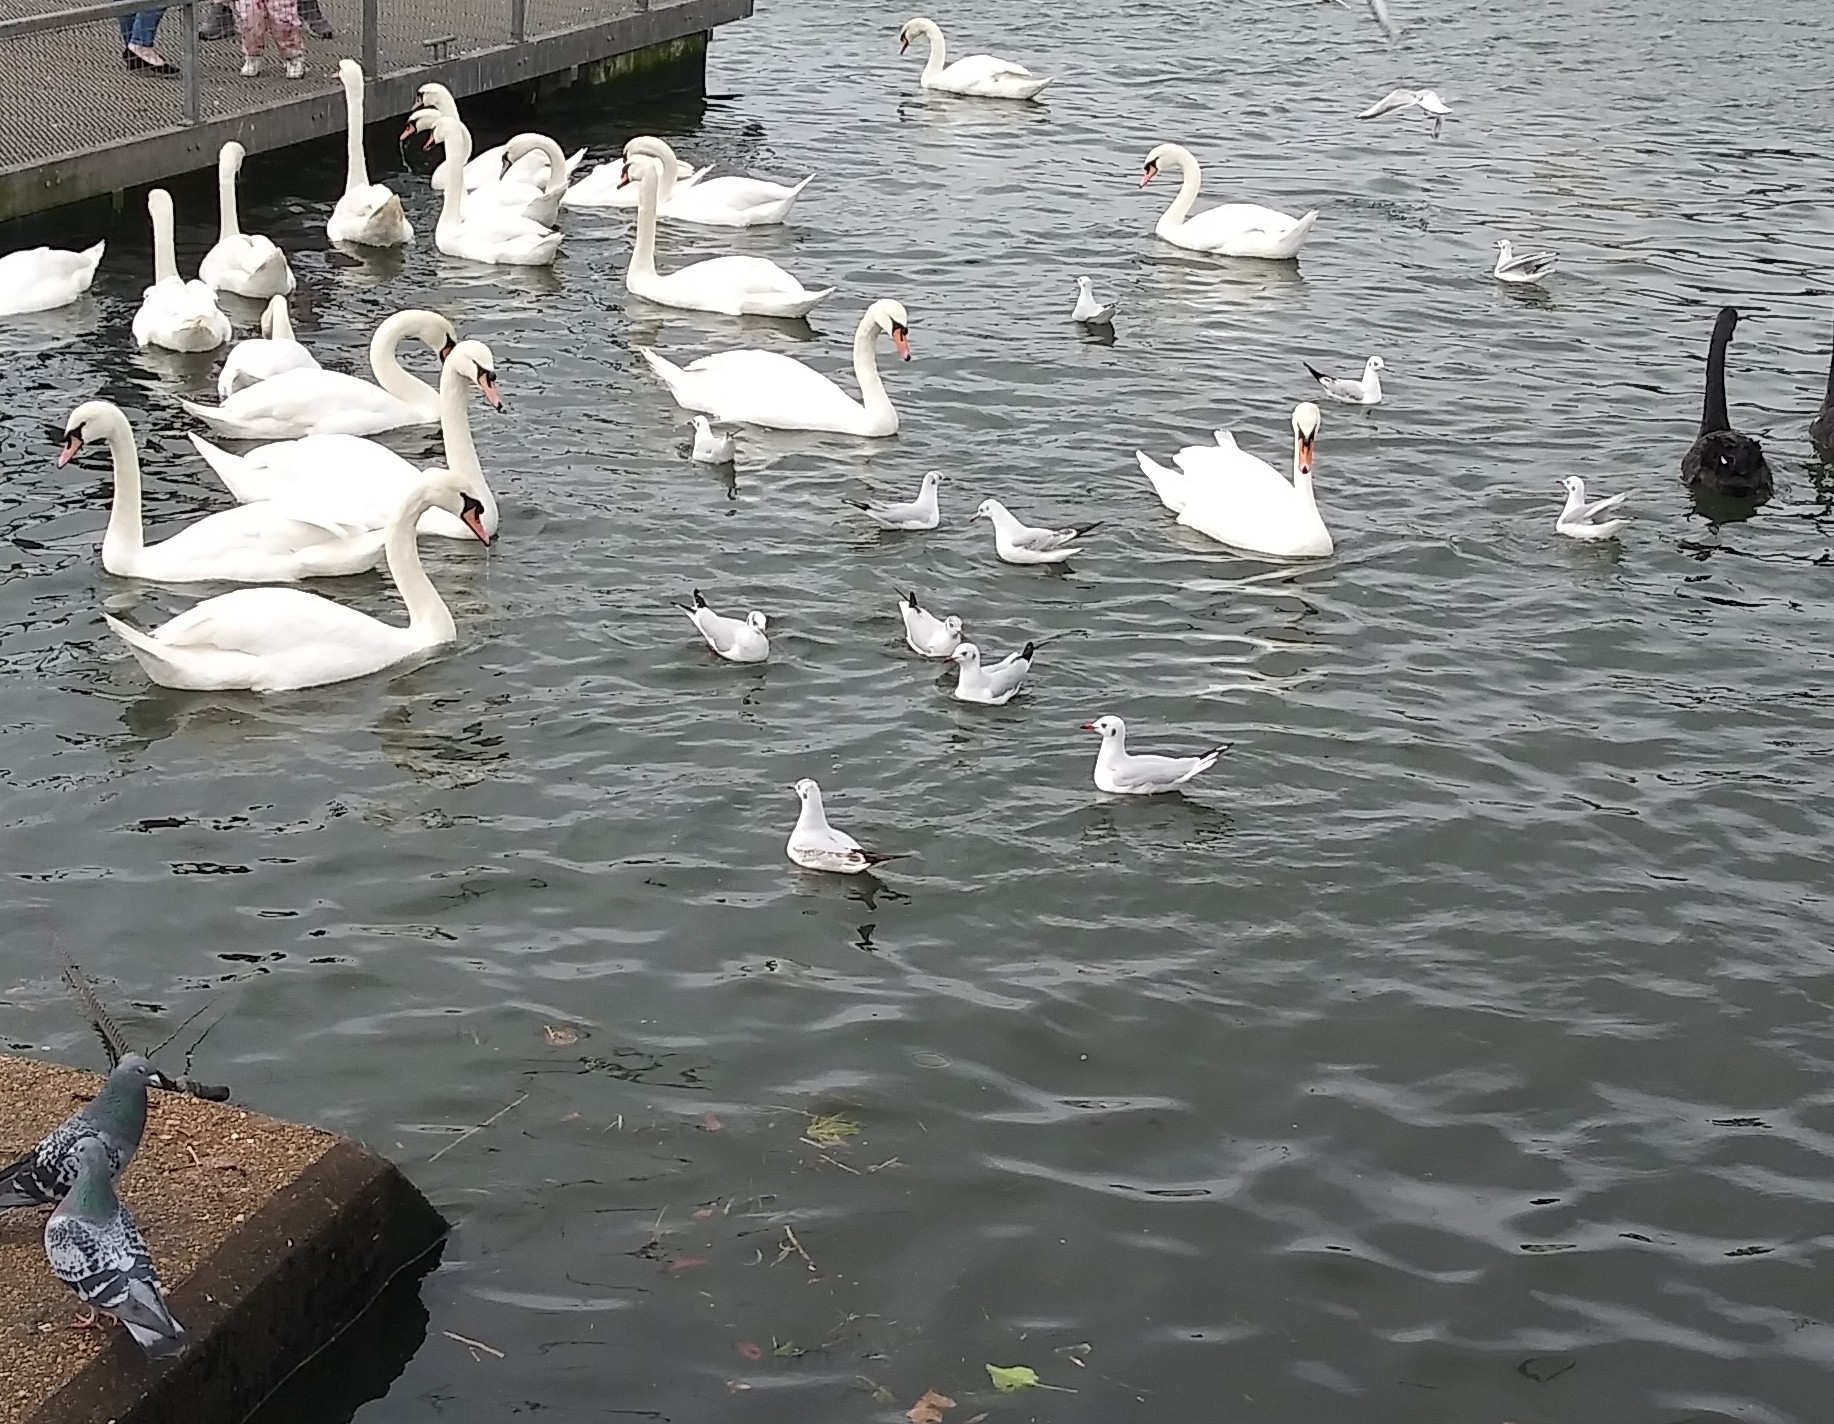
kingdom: Animalia
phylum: Chordata
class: Aves
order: Charadriiformes
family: Laridae
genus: Chroicocephalus
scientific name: Chroicocephalus ridibundus
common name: Black-headed gull
